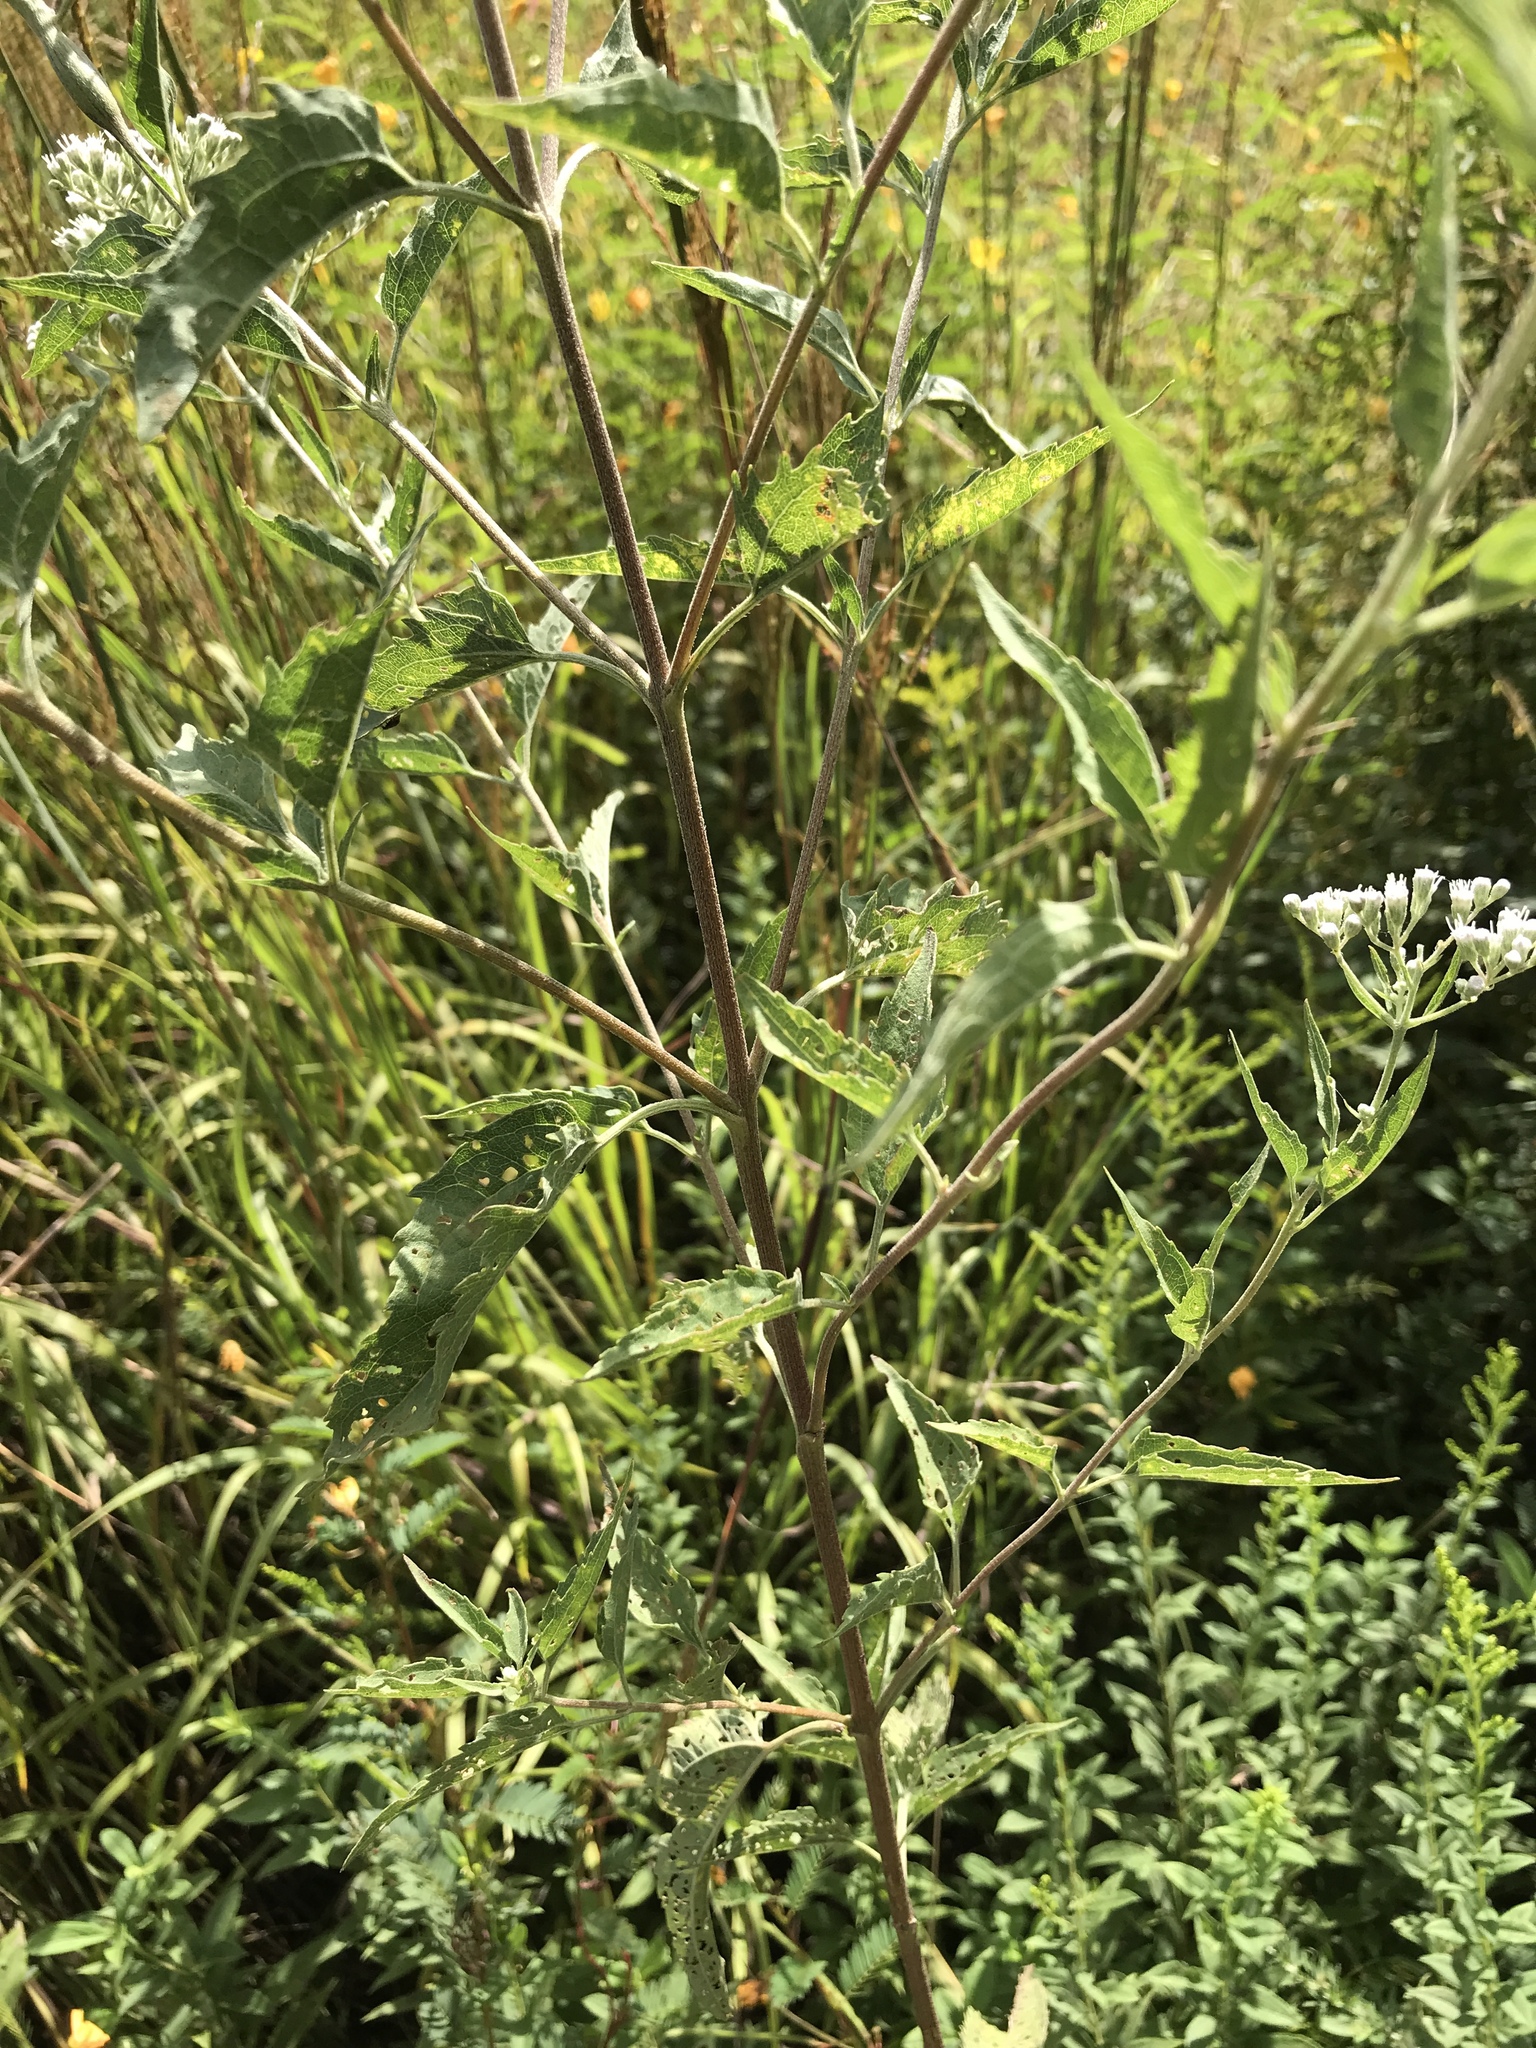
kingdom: Plantae
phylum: Tracheophyta
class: Magnoliopsida
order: Asterales
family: Asteraceae
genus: Eupatorium
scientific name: Eupatorium serotinum
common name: Late boneset
